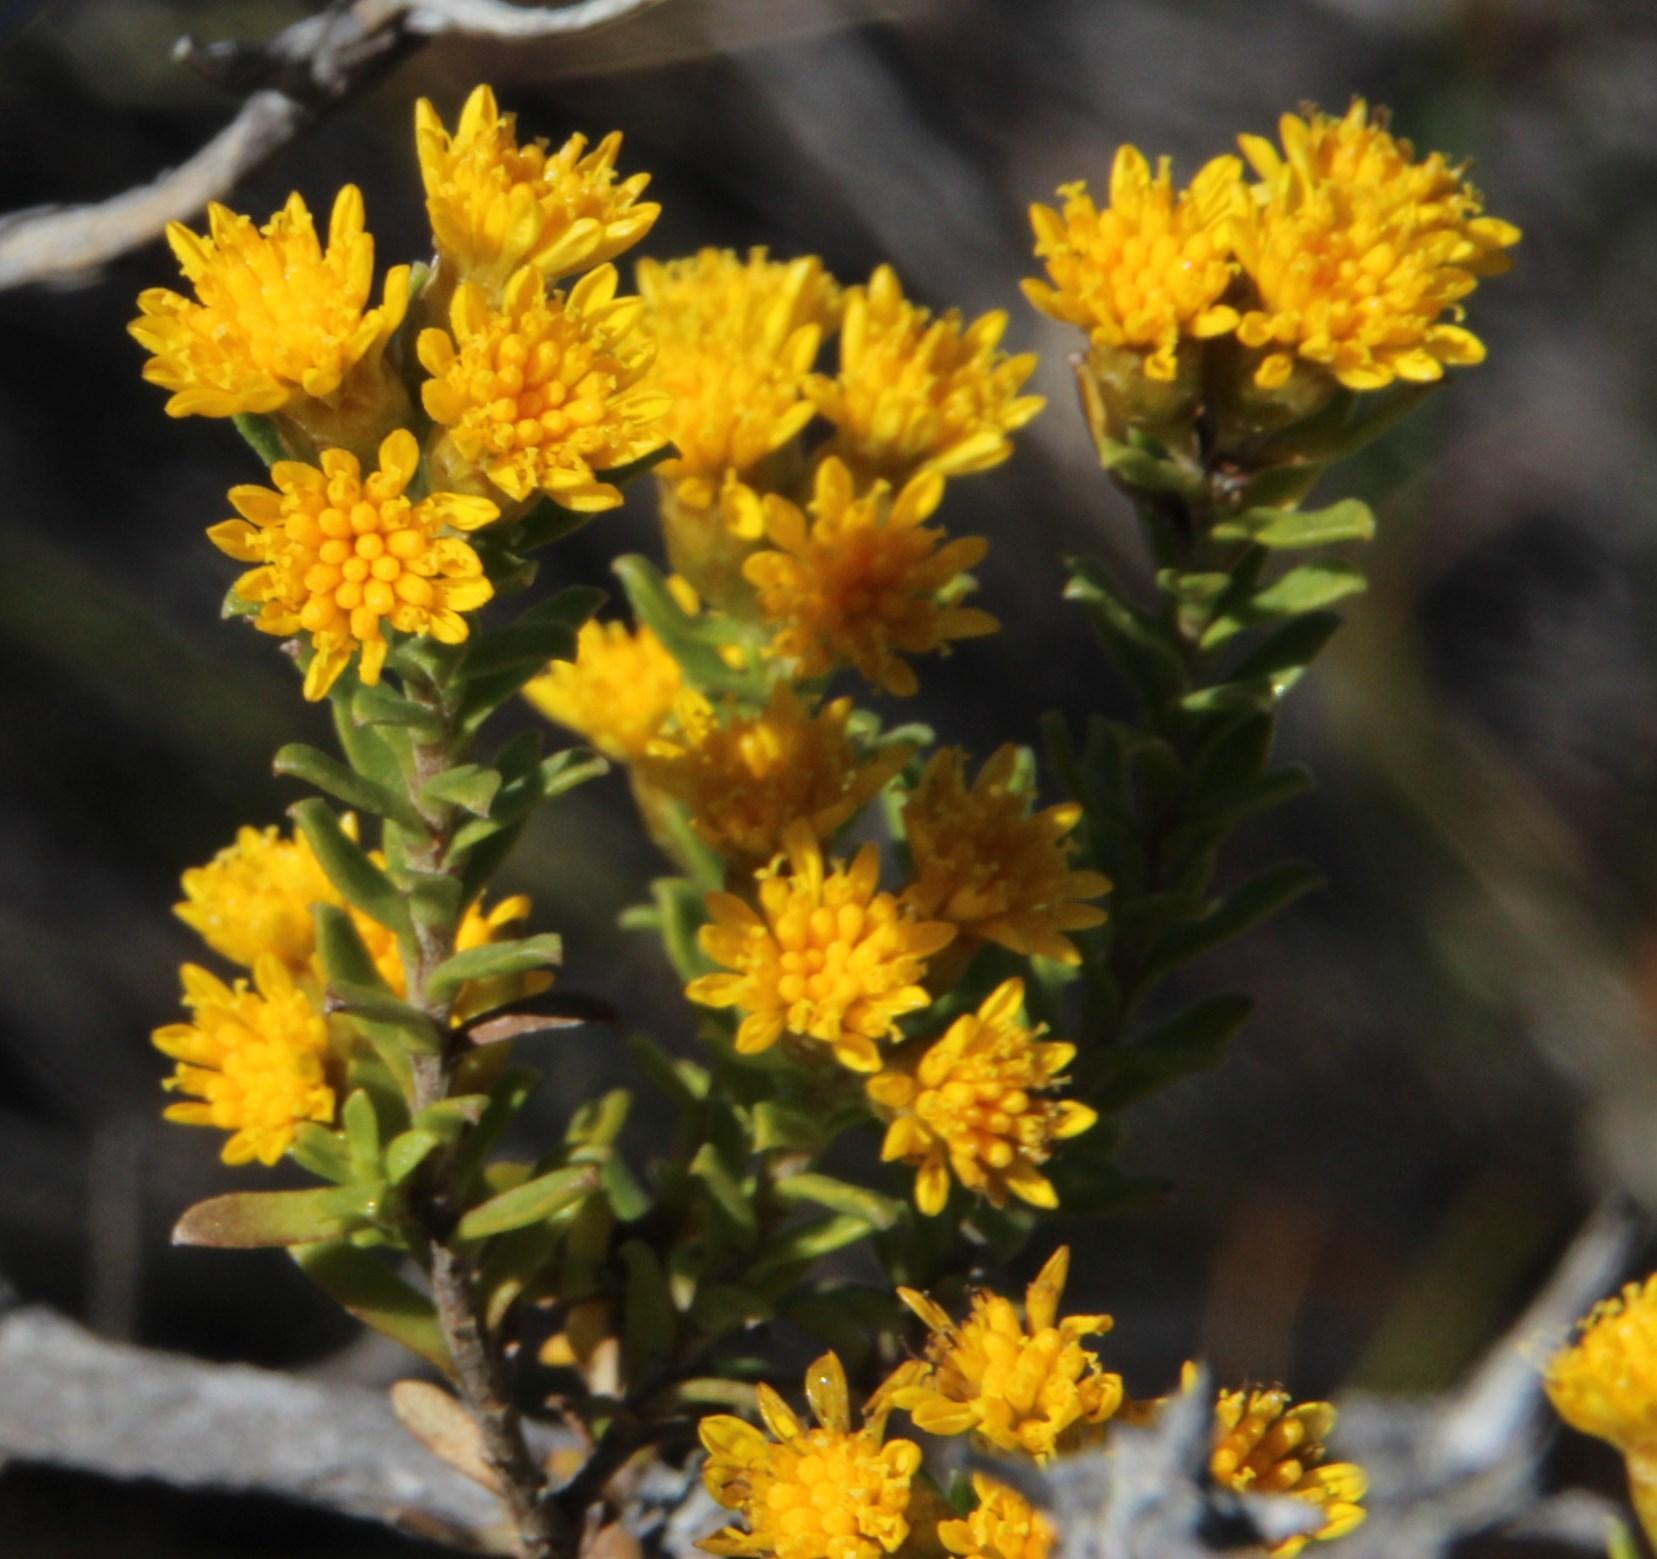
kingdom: Plantae
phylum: Tracheophyta
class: Magnoliopsida
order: Asterales
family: Asteraceae
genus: Oedera
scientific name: Oedera genistifolia
